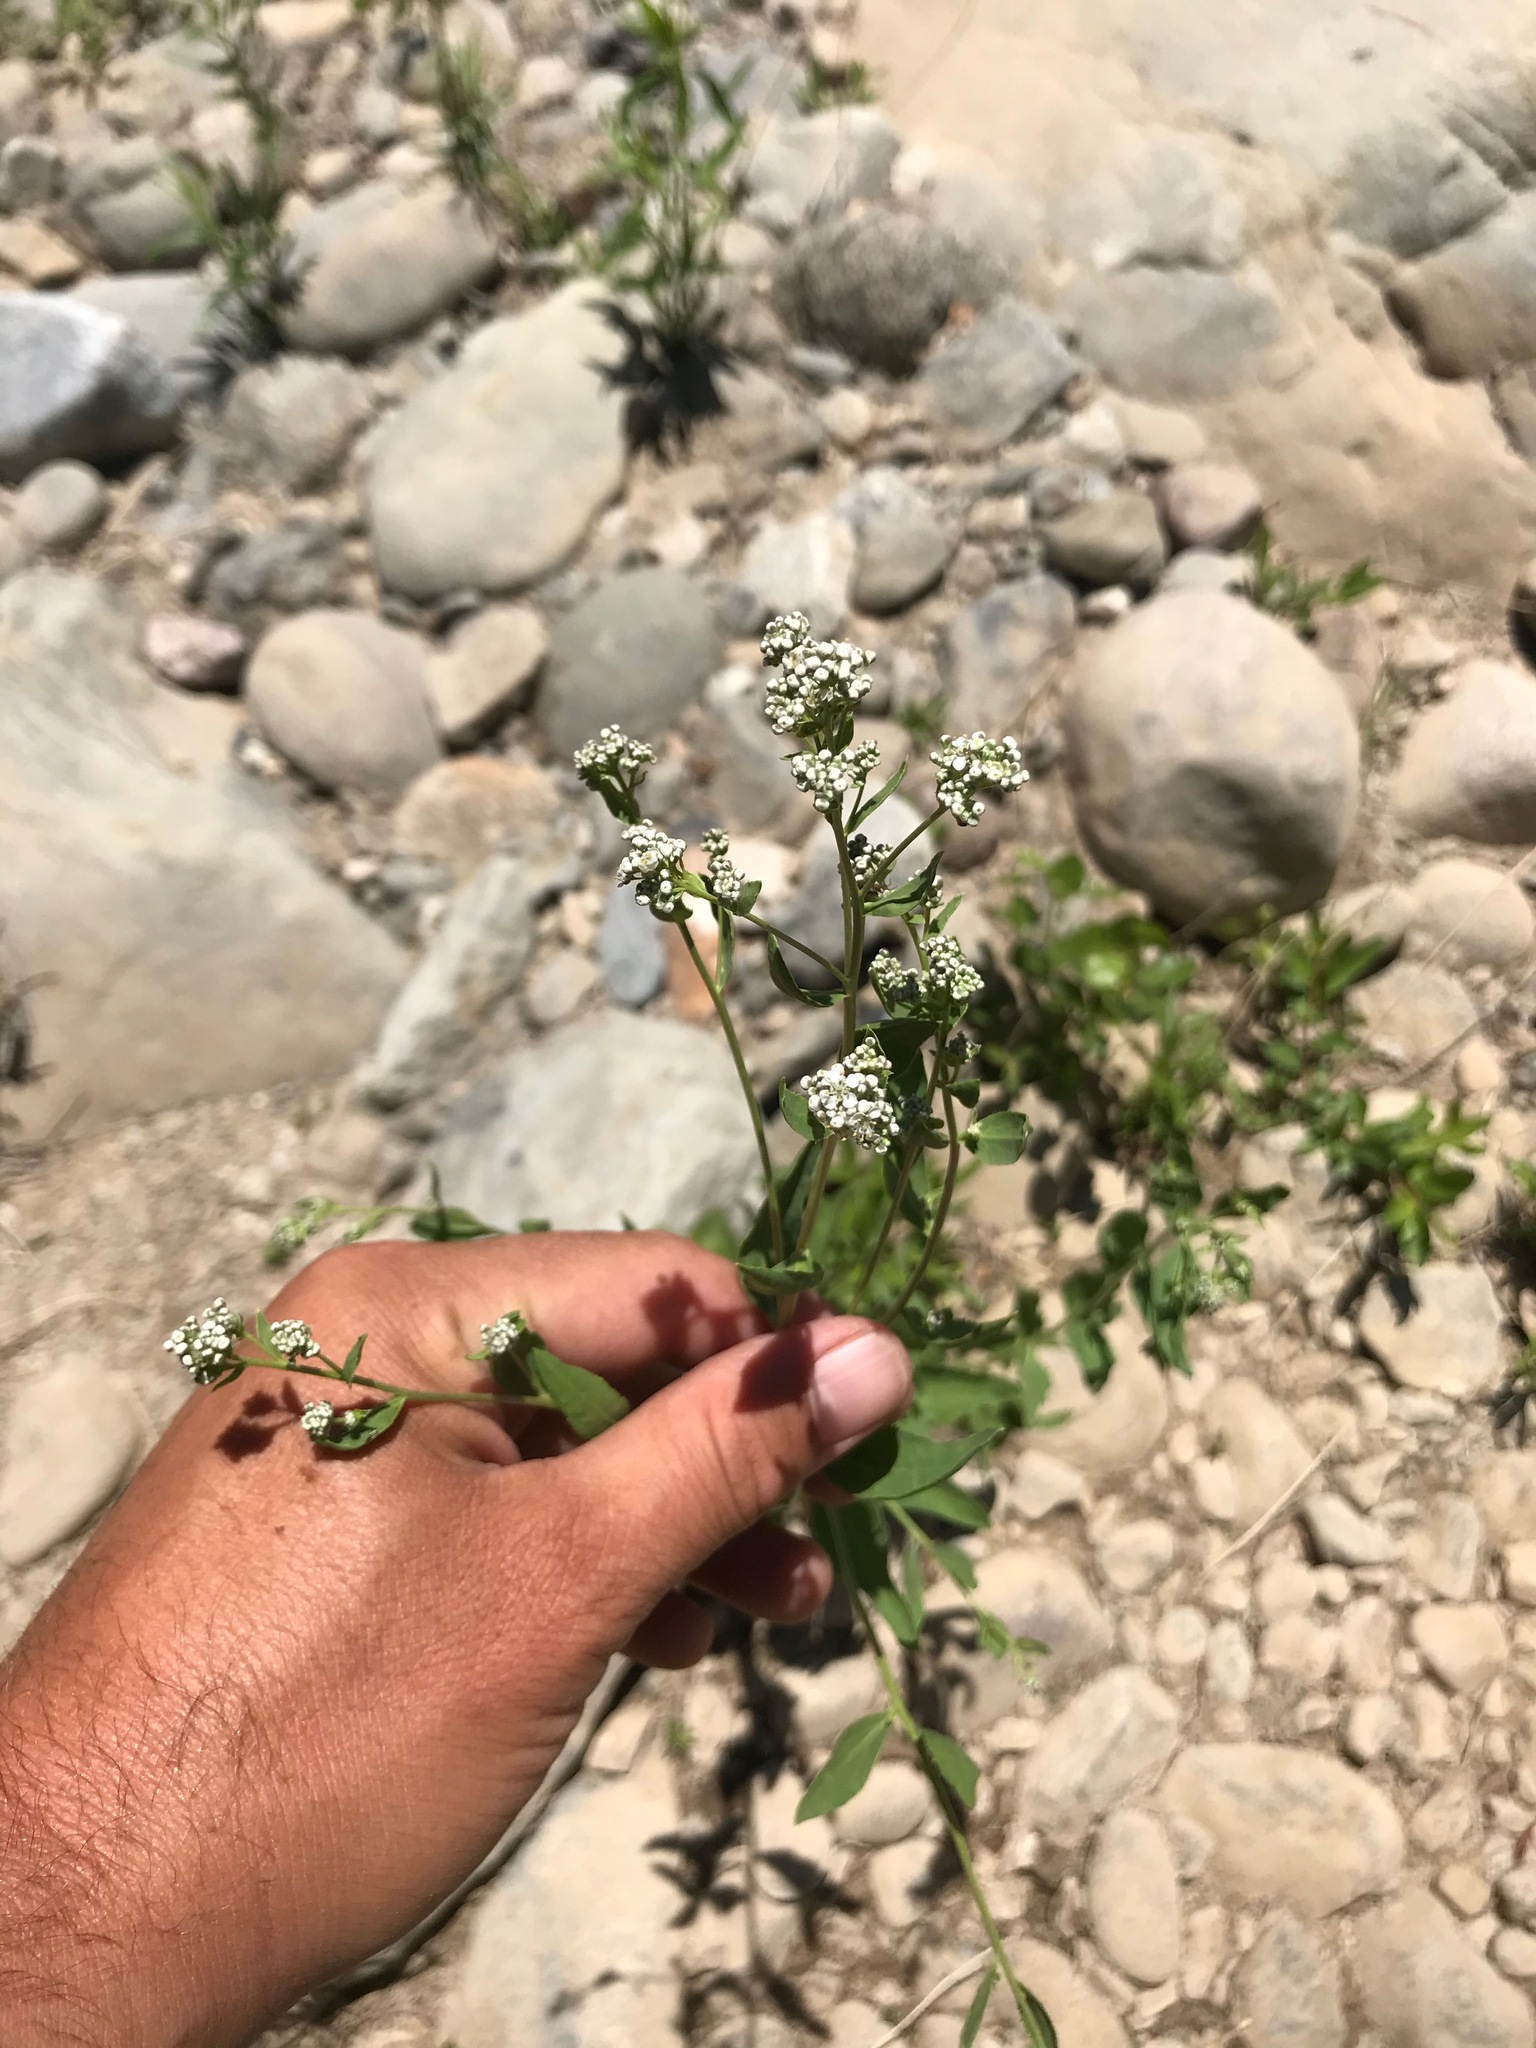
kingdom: Plantae
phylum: Tracheophyta
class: Magnoliopsida
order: Brassicales
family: Brassicaceae
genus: Lepidium
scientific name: Lepidium latifolium
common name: Dittander
